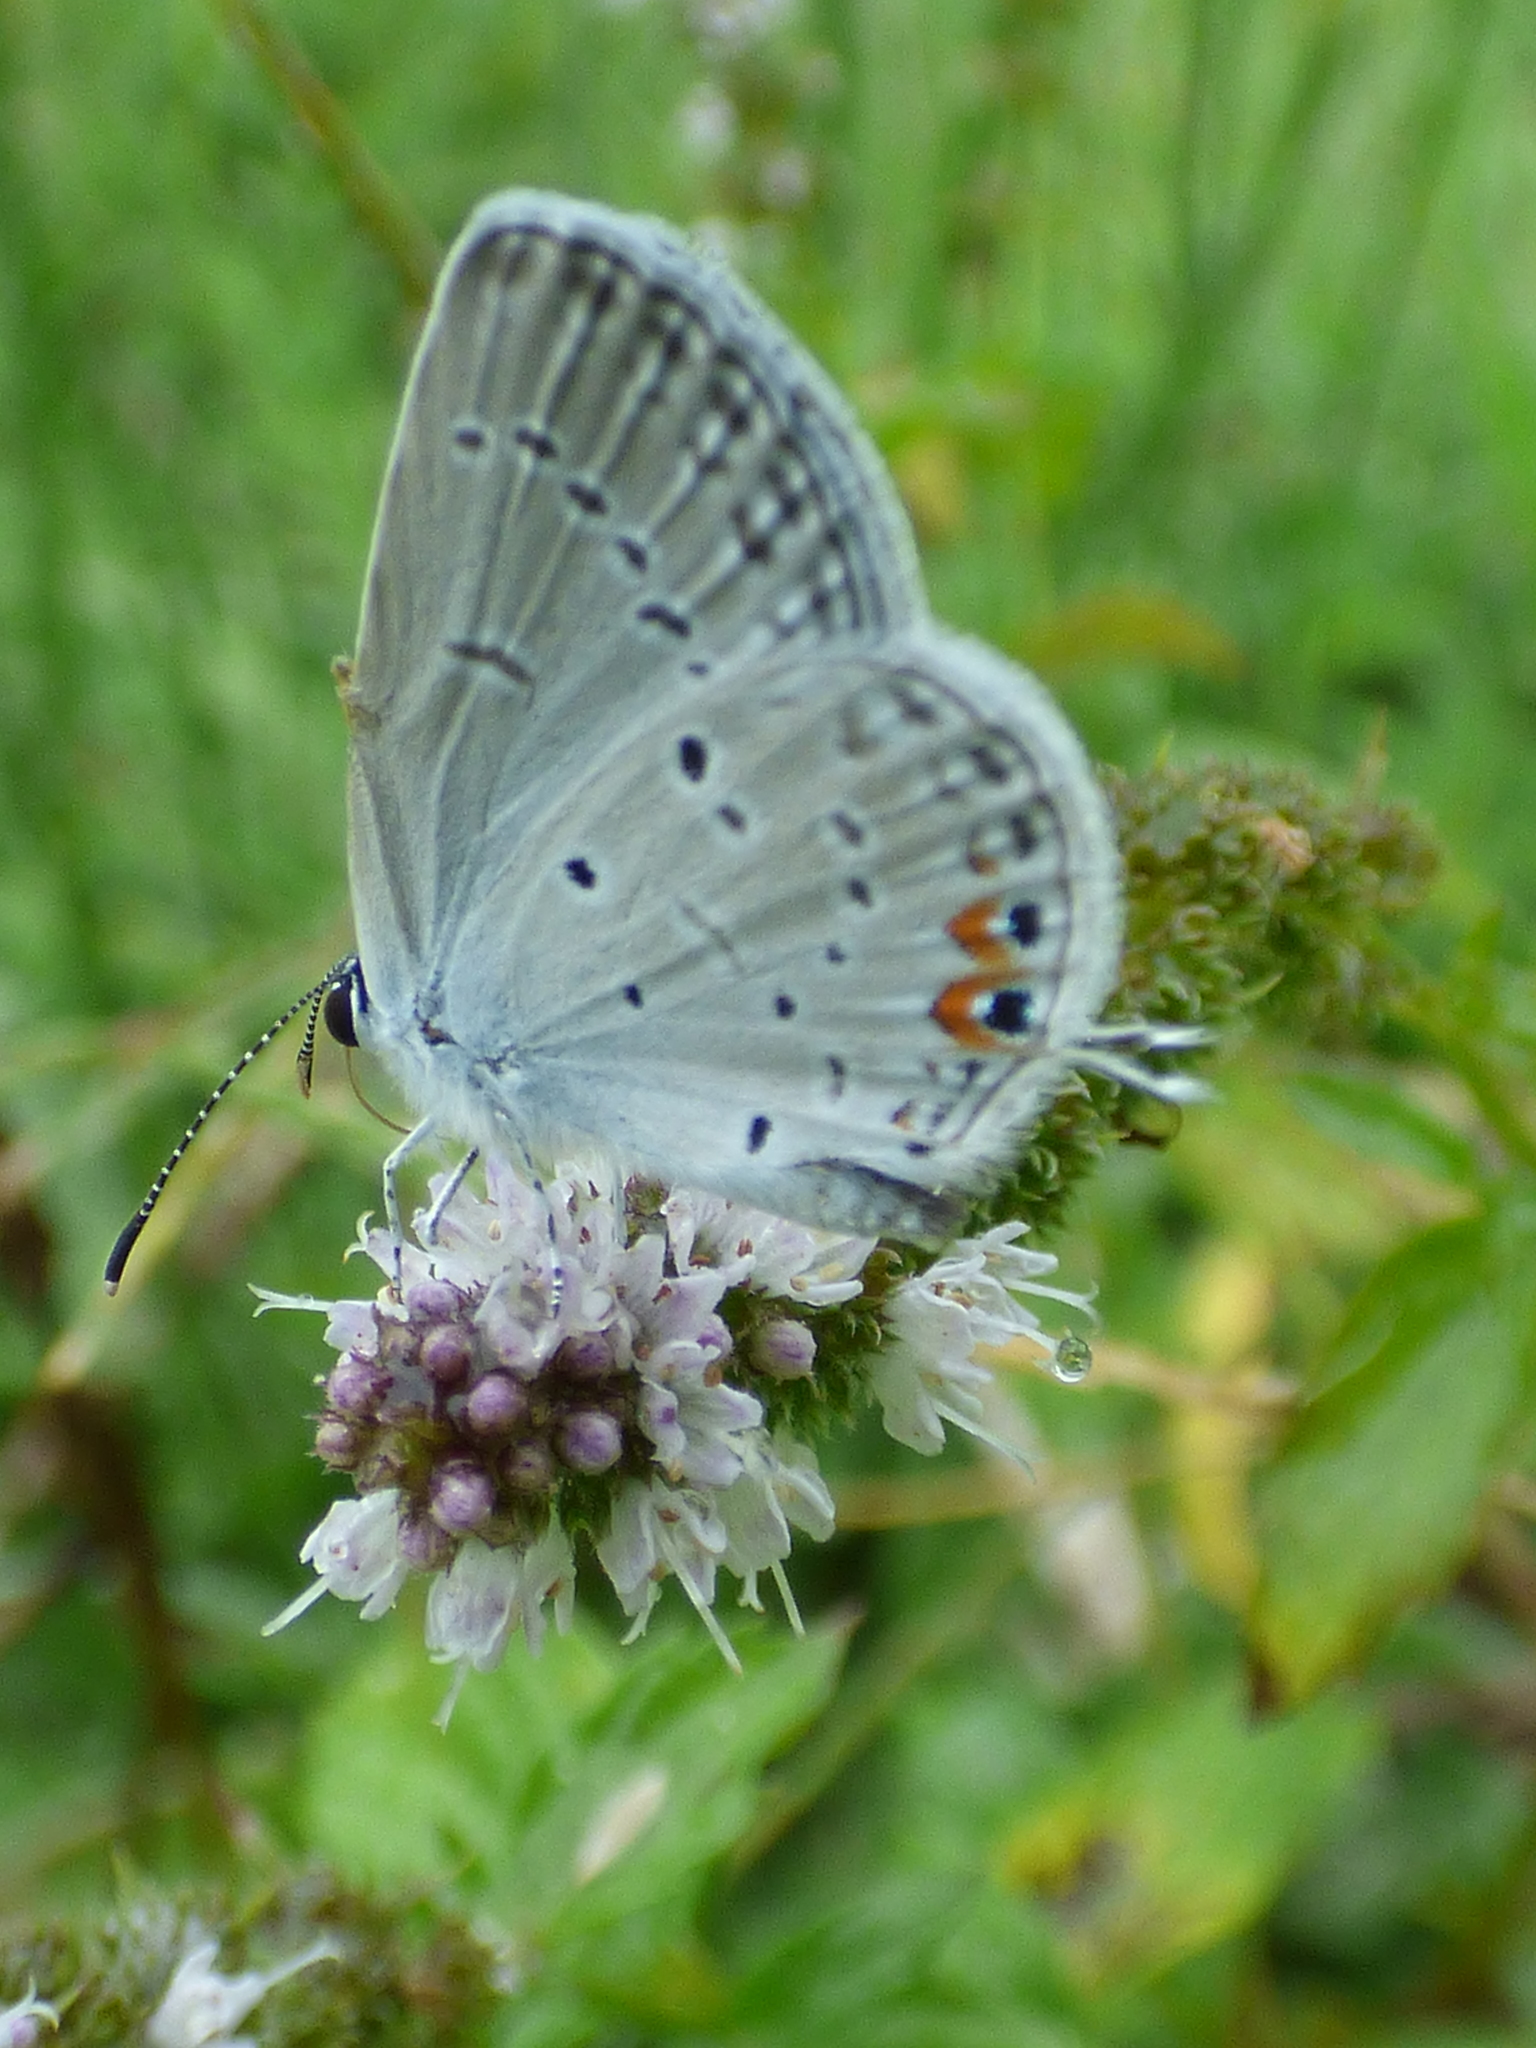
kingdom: Animalia
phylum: Arthropoda
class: Insecta
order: Lepidoptera
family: Lycaenidae
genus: Elkalyce
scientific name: Elkalyce comyntas
